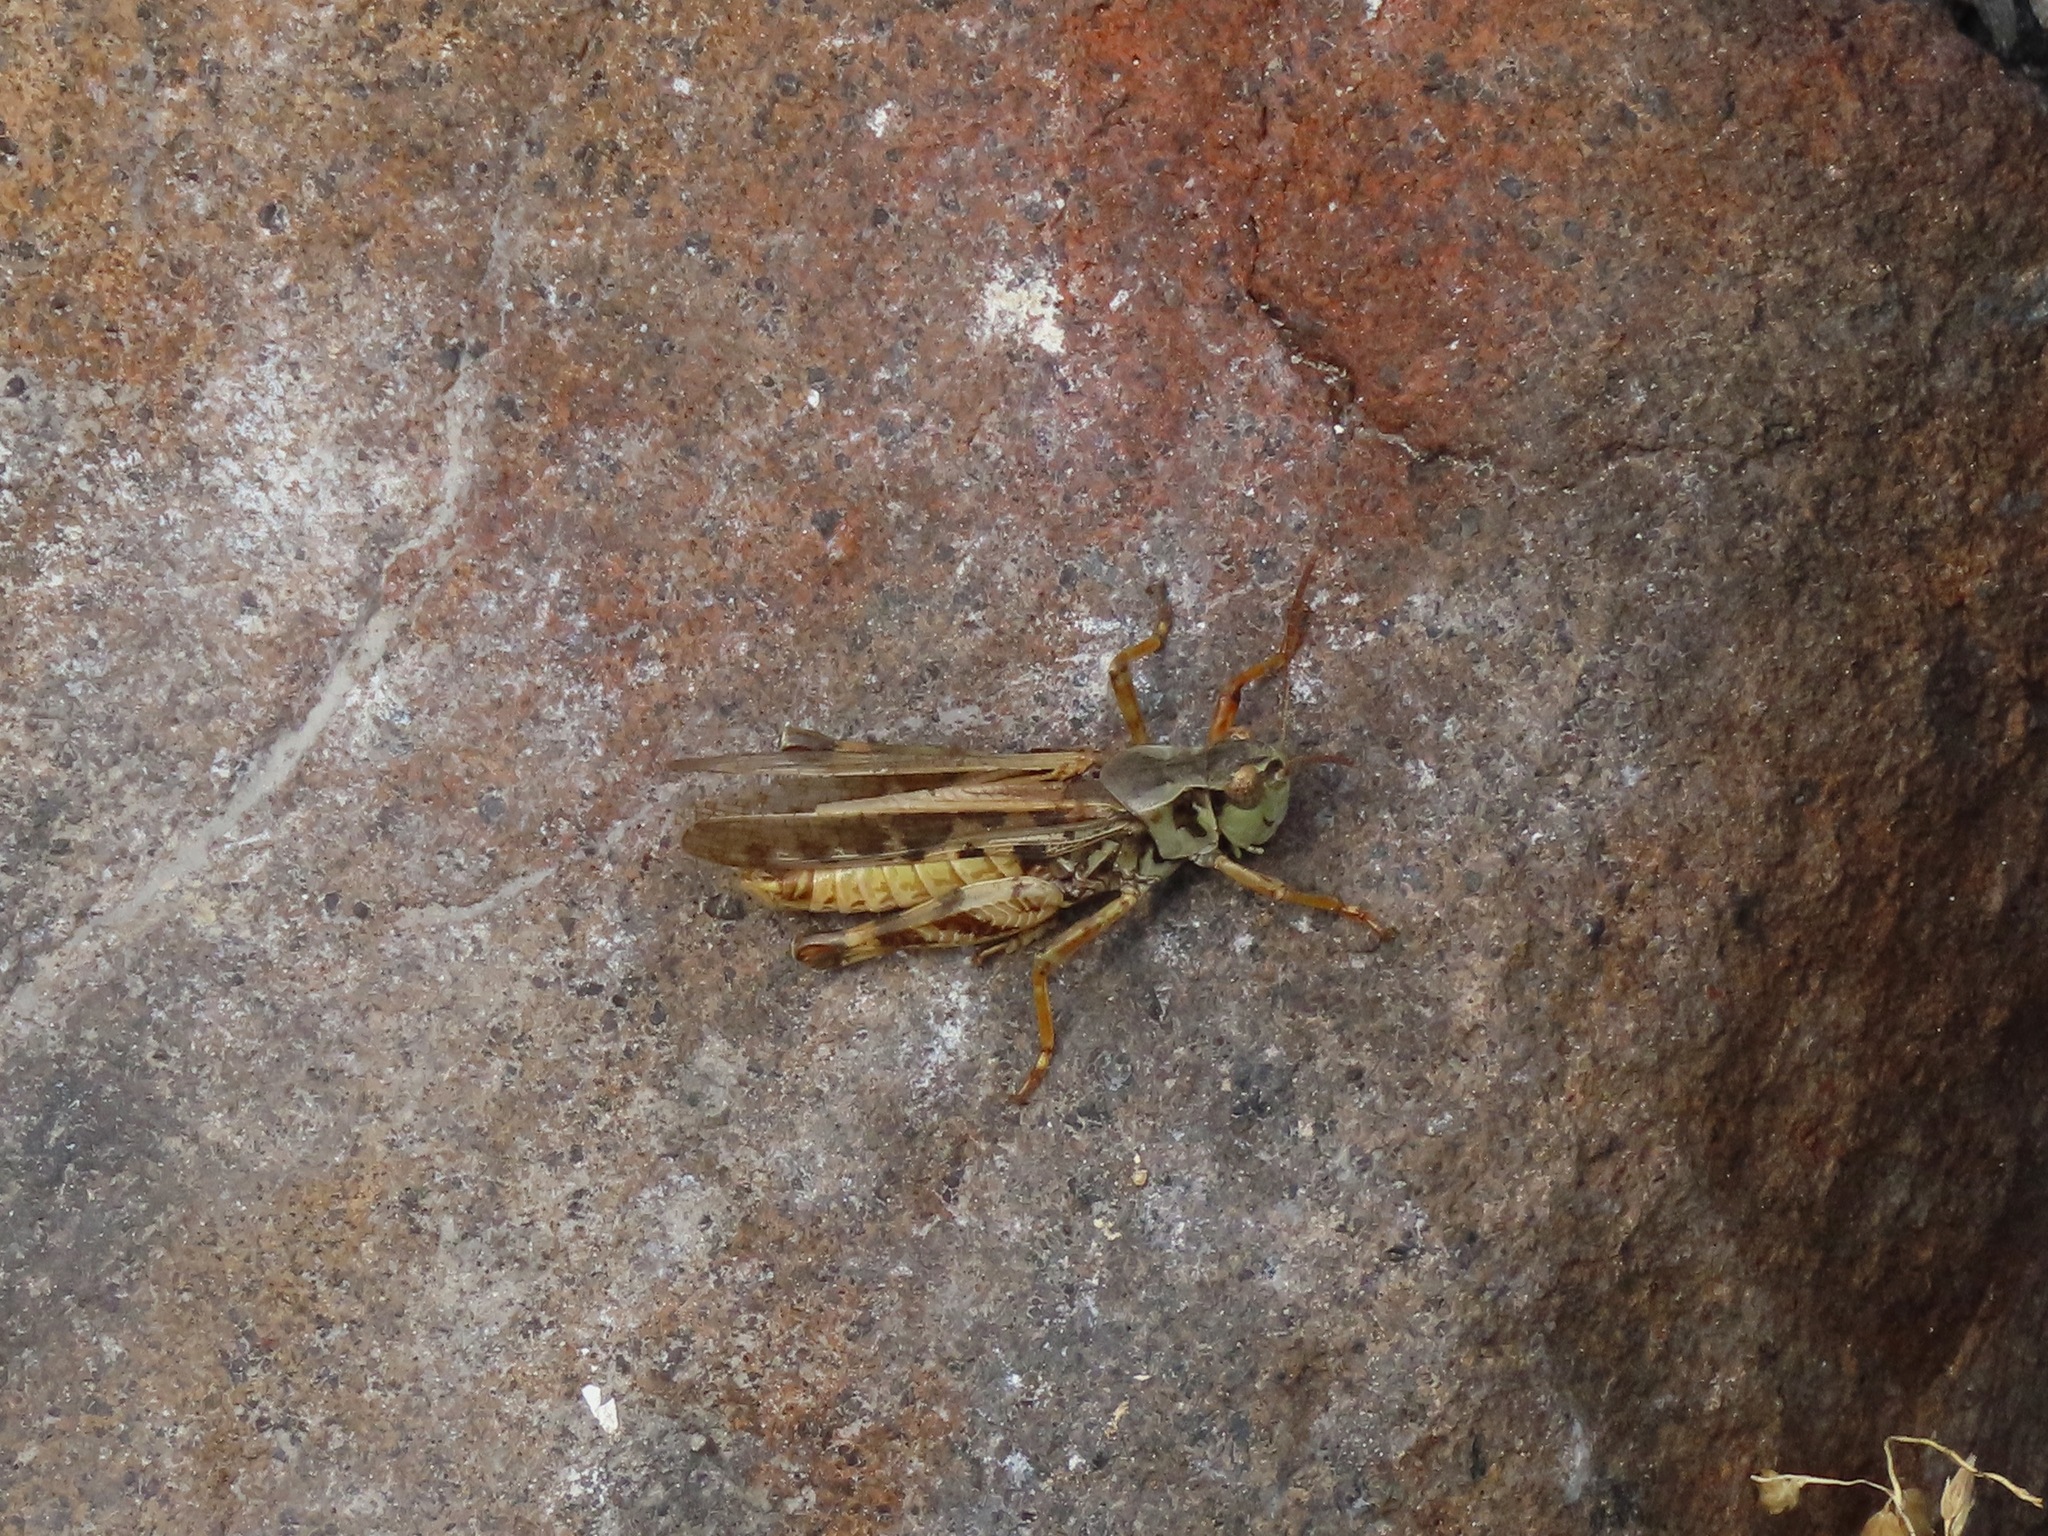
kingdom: Animalia
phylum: Arthropoda
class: Insecta
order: Orthoptera
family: Acrididae
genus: Camnula
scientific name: Camnula pellucida
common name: Clear-winged grasshopper
